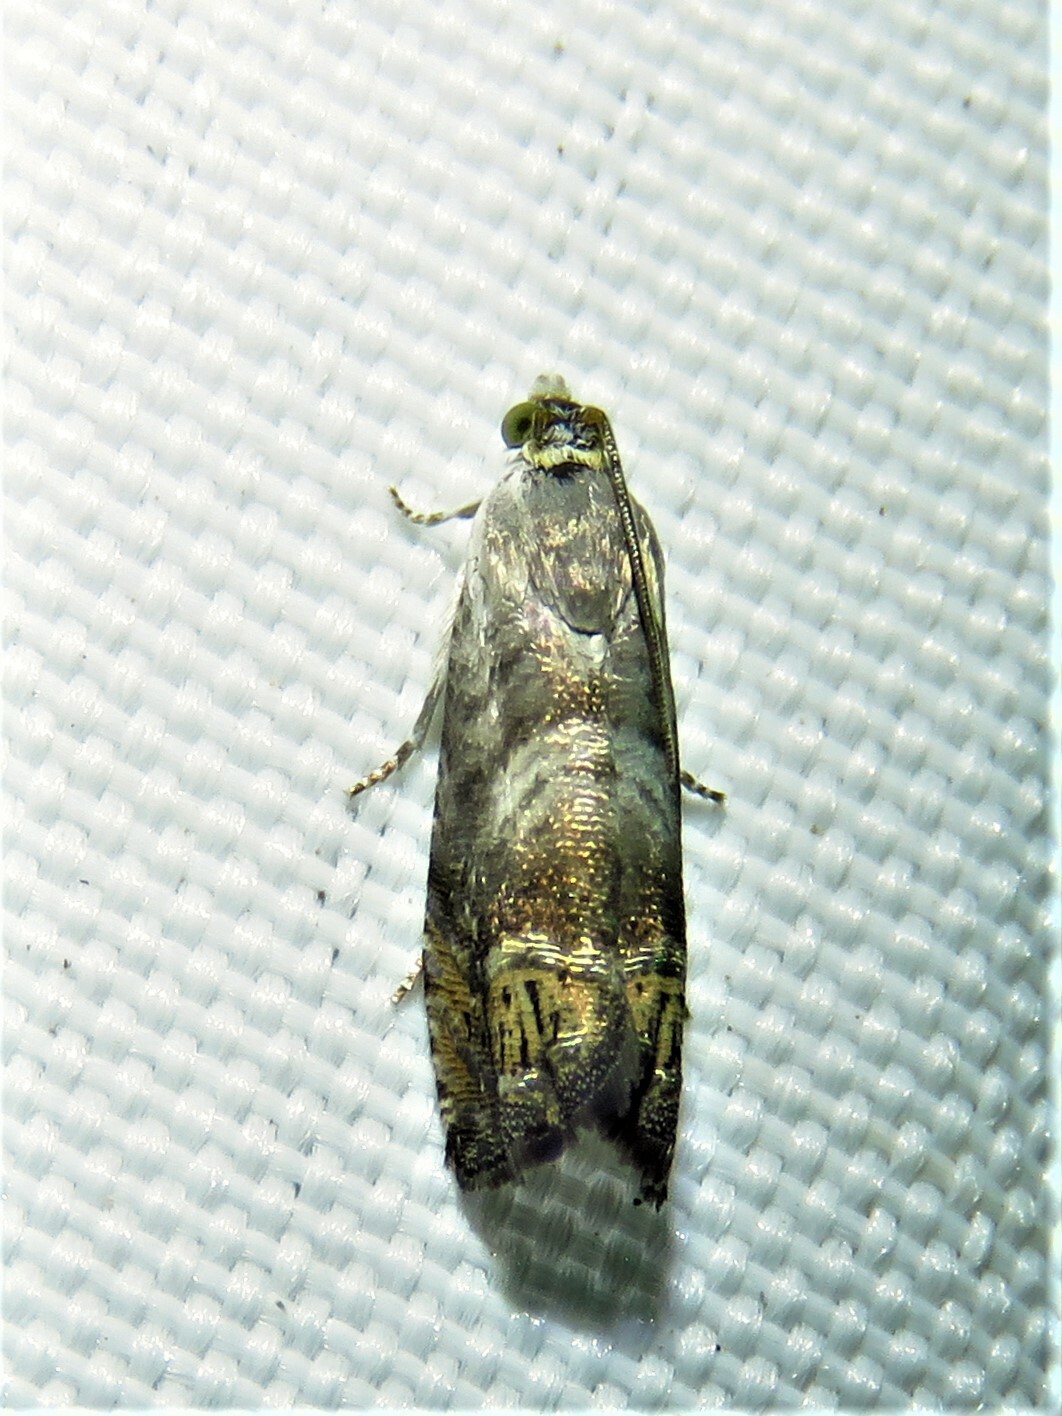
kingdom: Animalia
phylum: Arthropoda
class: Insecta
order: Lepidoptera
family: Tortricidae
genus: Ofatulena
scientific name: Ofatulena luminosa
